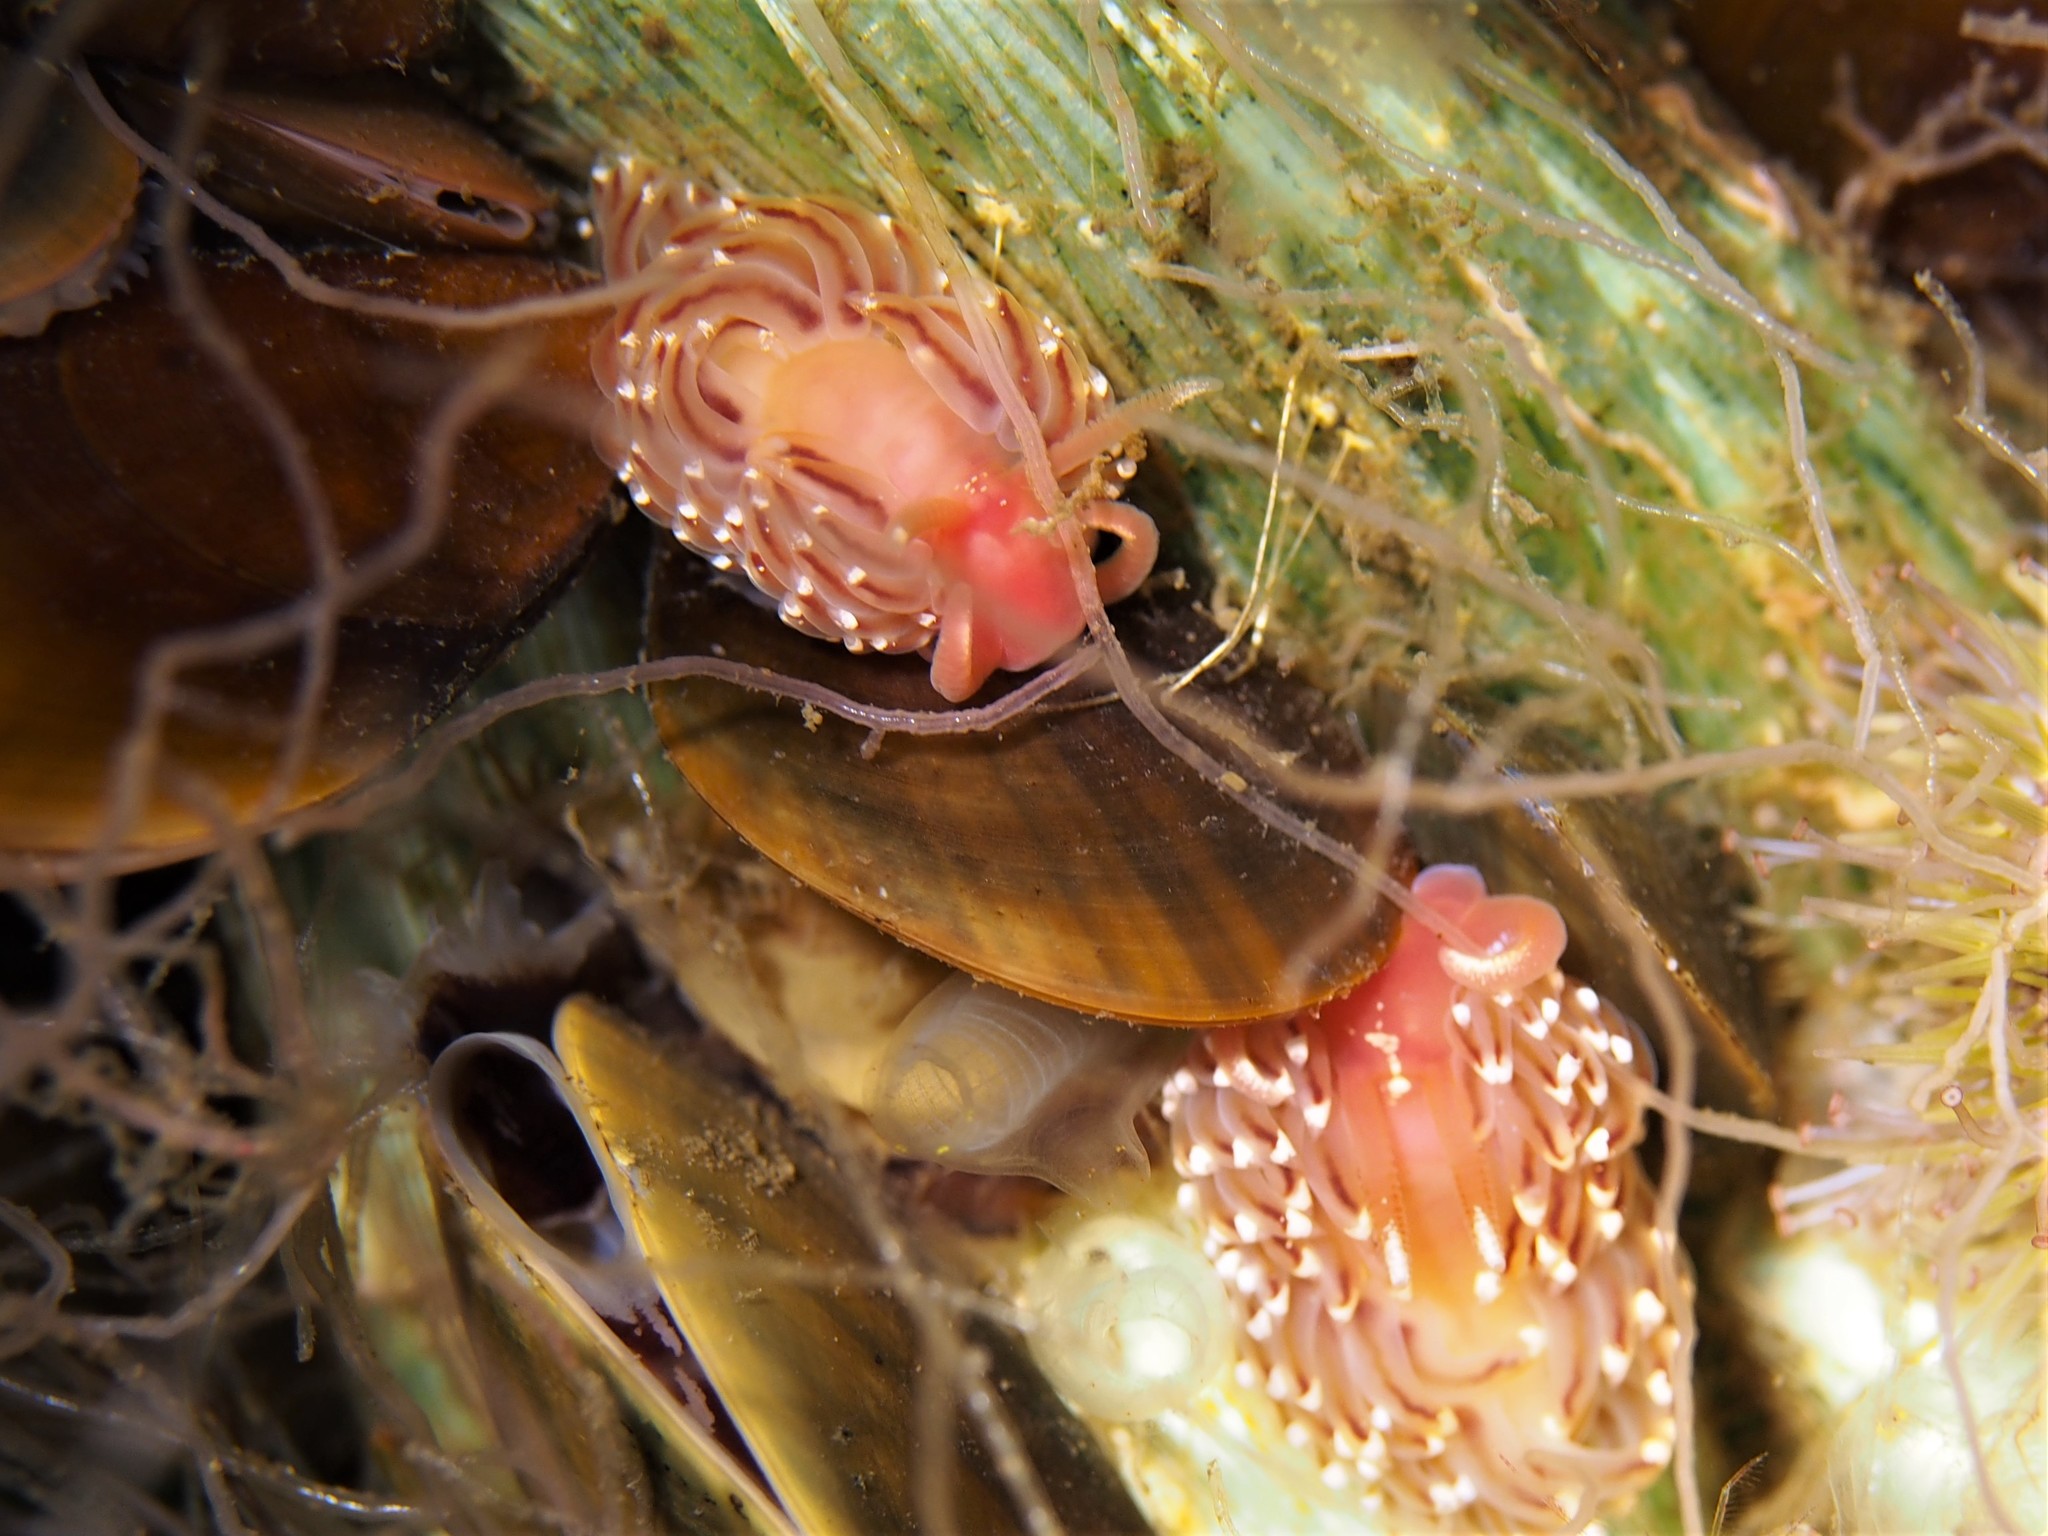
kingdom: Animalia
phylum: Mollusca
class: Gastropoda
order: Nudibranchia
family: Facelinidae
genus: Facelina
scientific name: Facelina bostoniensis
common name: Boston facelina
